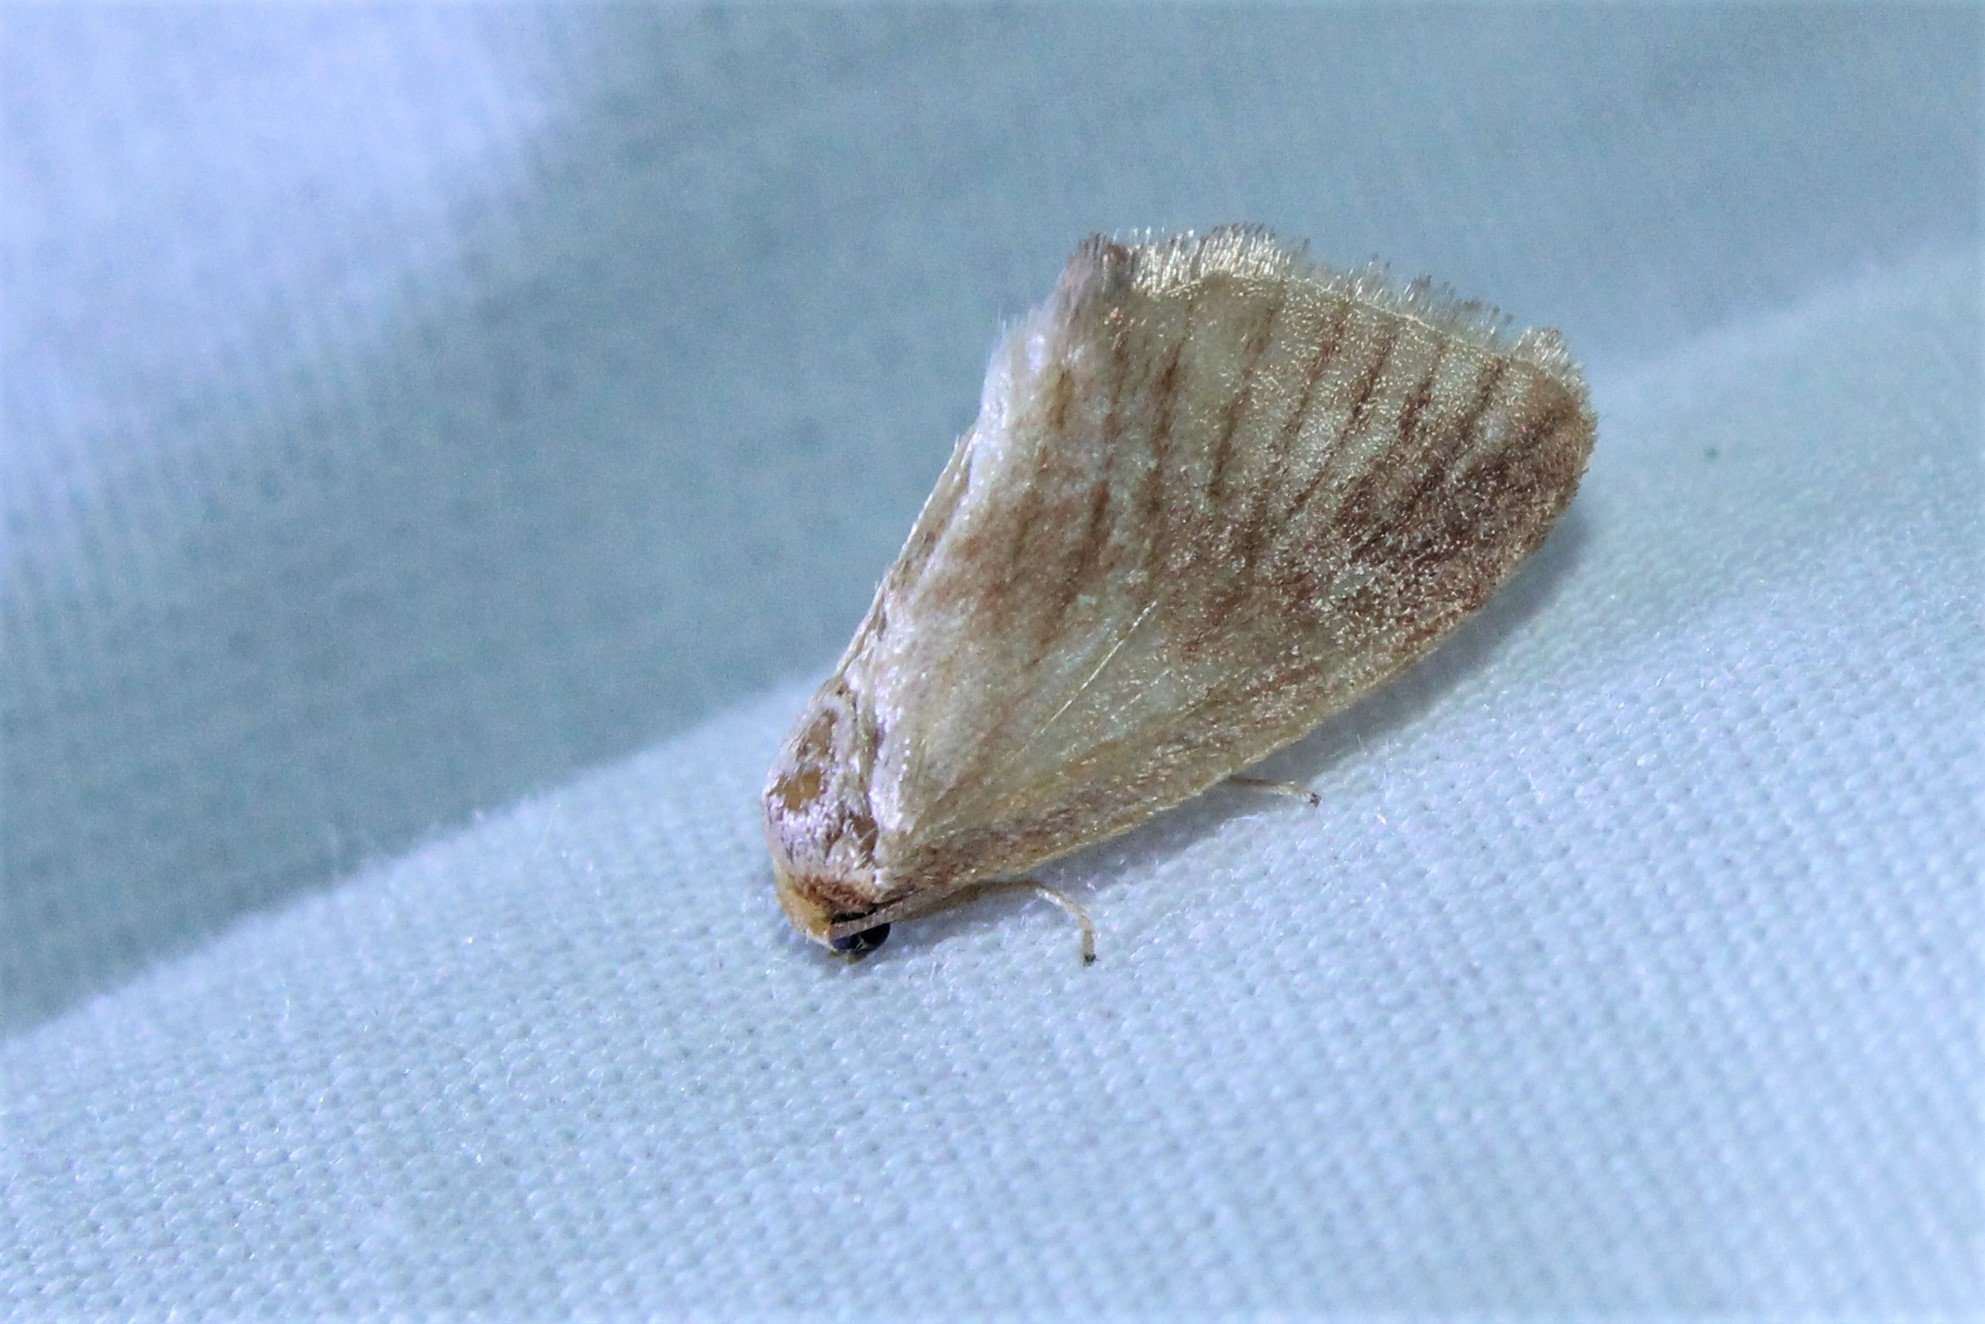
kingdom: Animalia
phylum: Arthropoda
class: Insecta
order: Lepidoptera
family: Limacodidae
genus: Tortricidia
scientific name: Tortricidia testacea
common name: Early button slug moth
